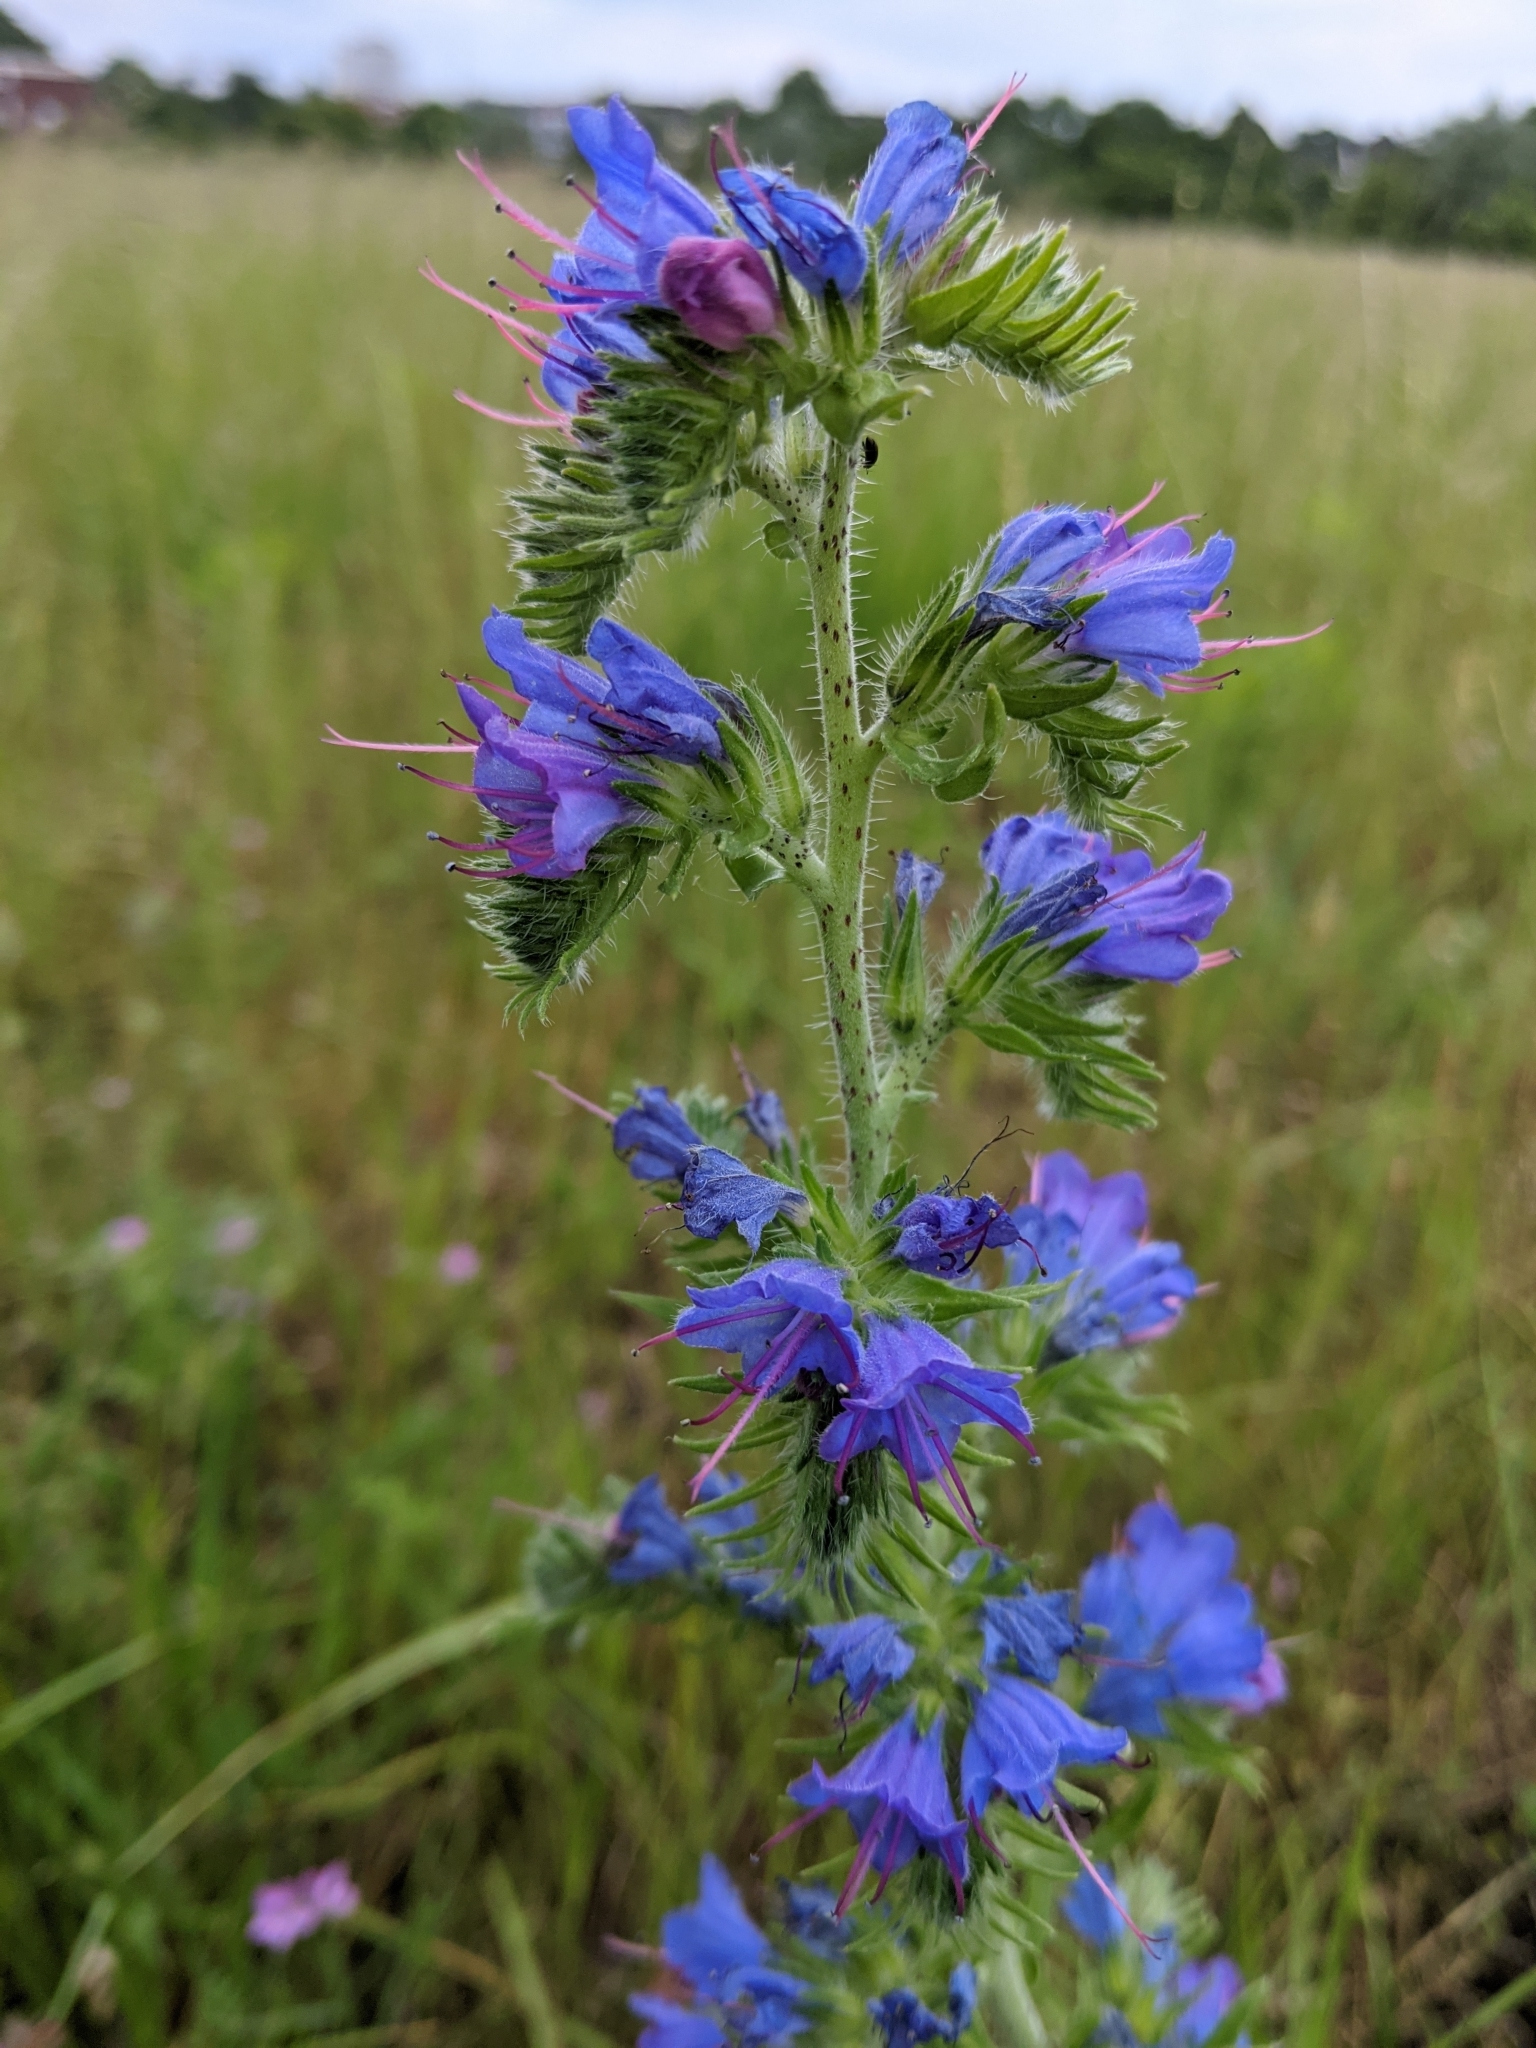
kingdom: Plantae
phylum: Tracheophyta
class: Magnoliopsida
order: Boraginales
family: Boraginaceae
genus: Echium
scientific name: Echium vulgare
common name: Common viper's bugloss
